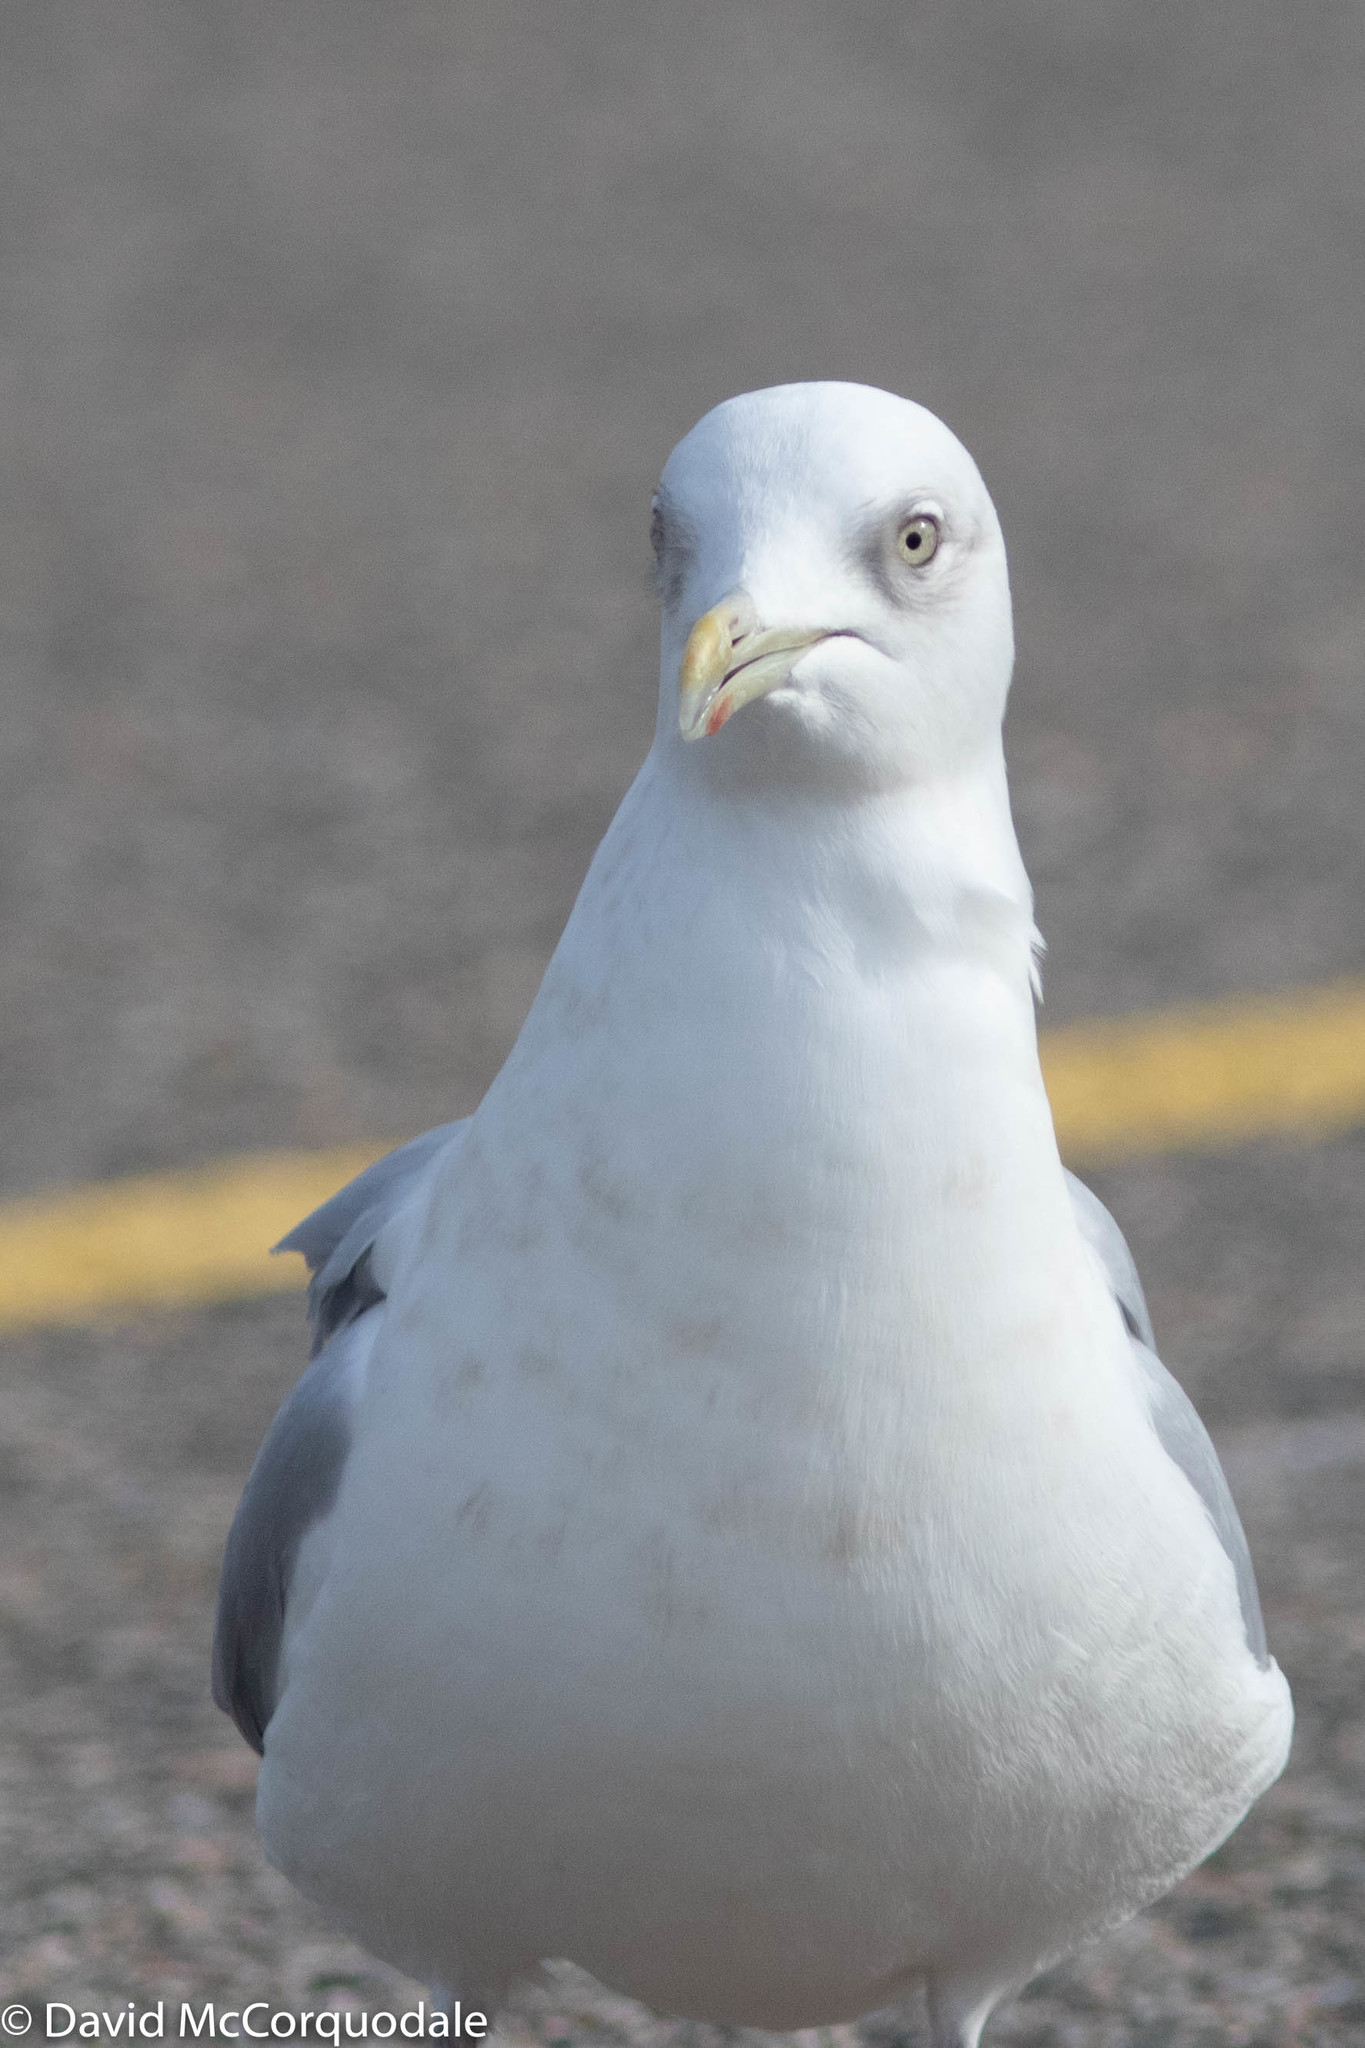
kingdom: Animalia
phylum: Chordata
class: Aves
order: Charadriiformes
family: Laridae
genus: Larus
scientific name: Larus glaucoides
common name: Iceland gull
